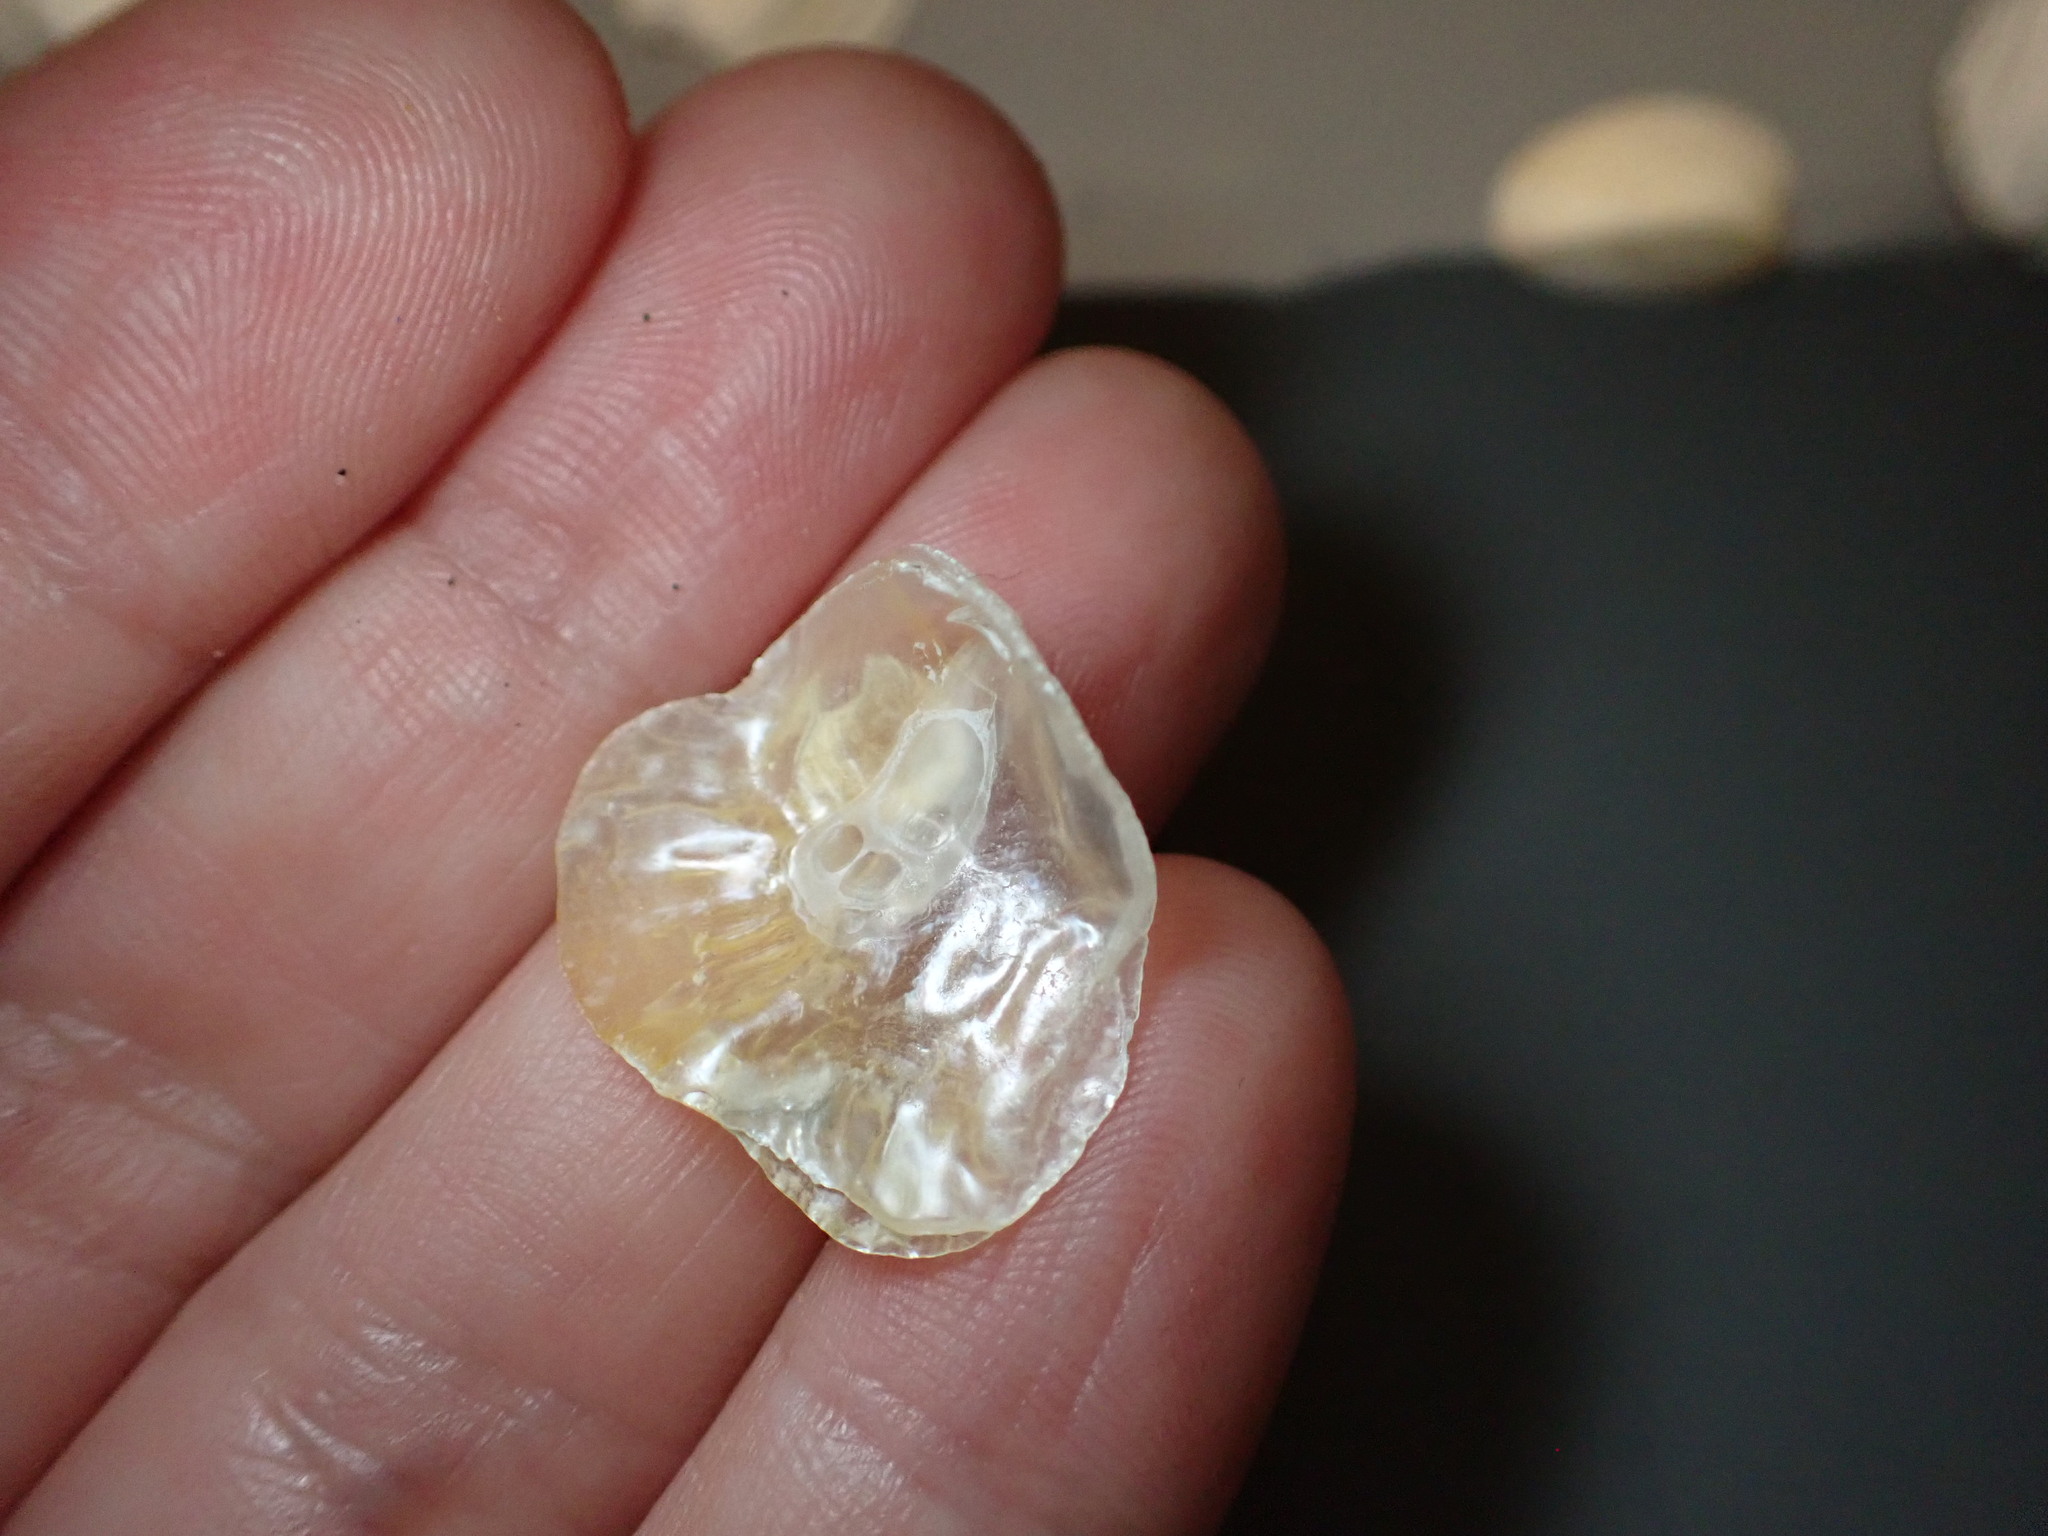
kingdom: Animalia
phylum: Mollusca
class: Bivalvia
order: Pectinida
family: Anomiidae
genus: Anomia
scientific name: Anomia ephippium
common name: Saddle oyster
